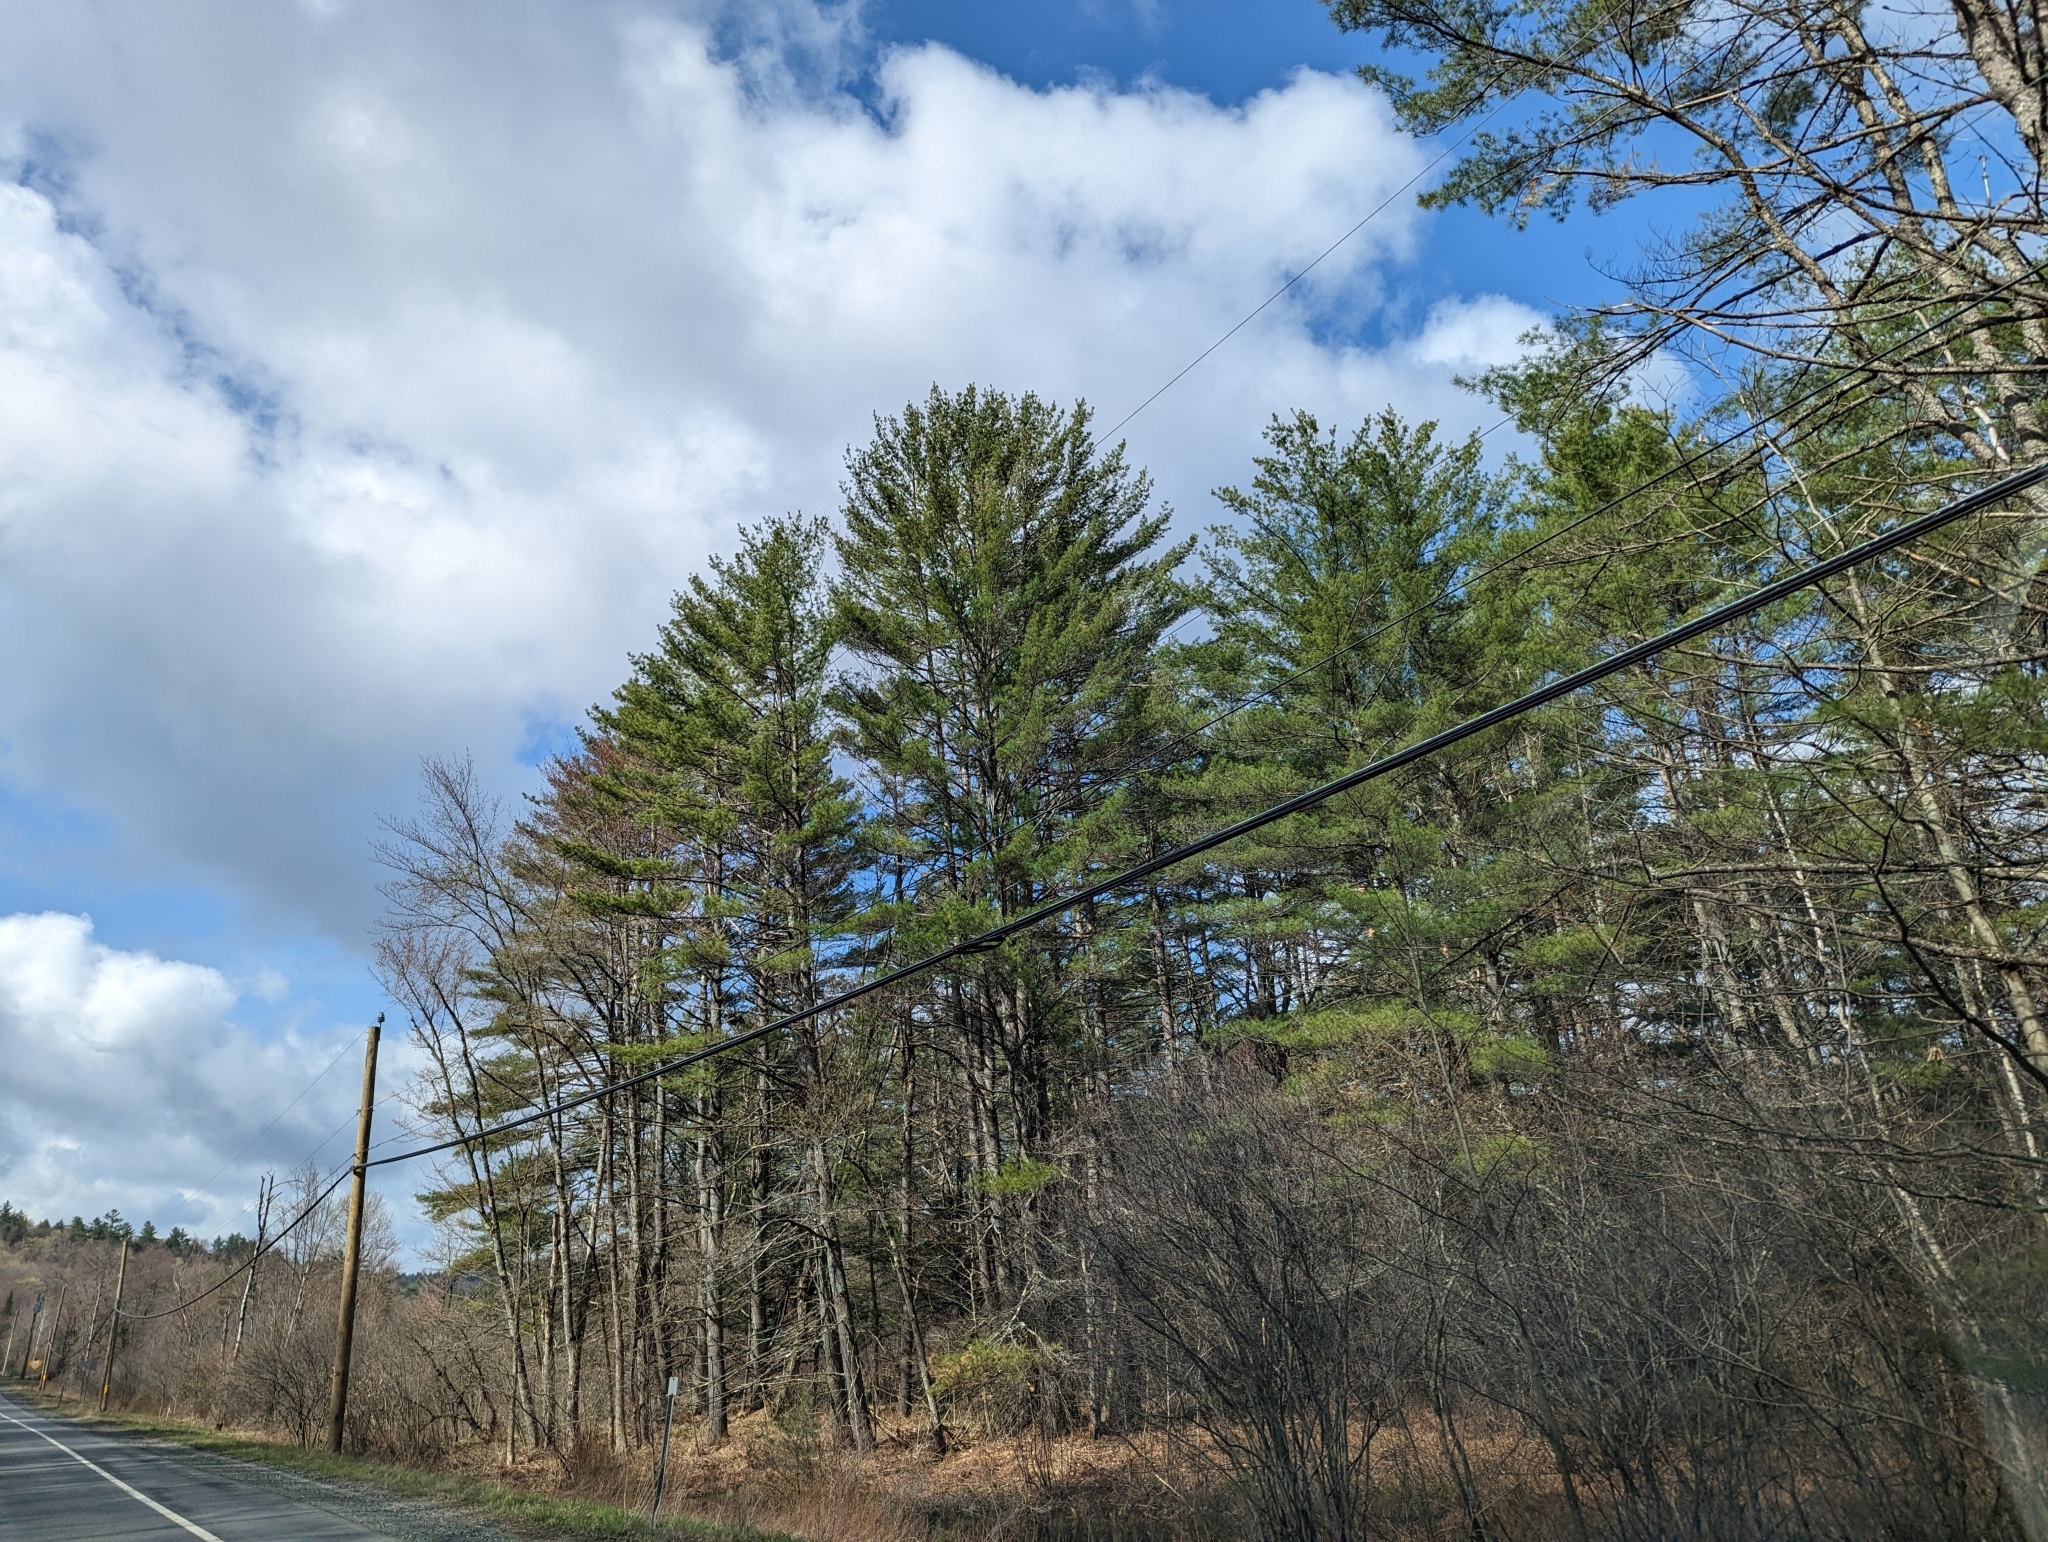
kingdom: Plantae
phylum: Tracheophyta
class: Pinopsida
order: Pinales
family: Pinaceae
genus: Pinus
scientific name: Pinus strobus
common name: Weymouth pine
